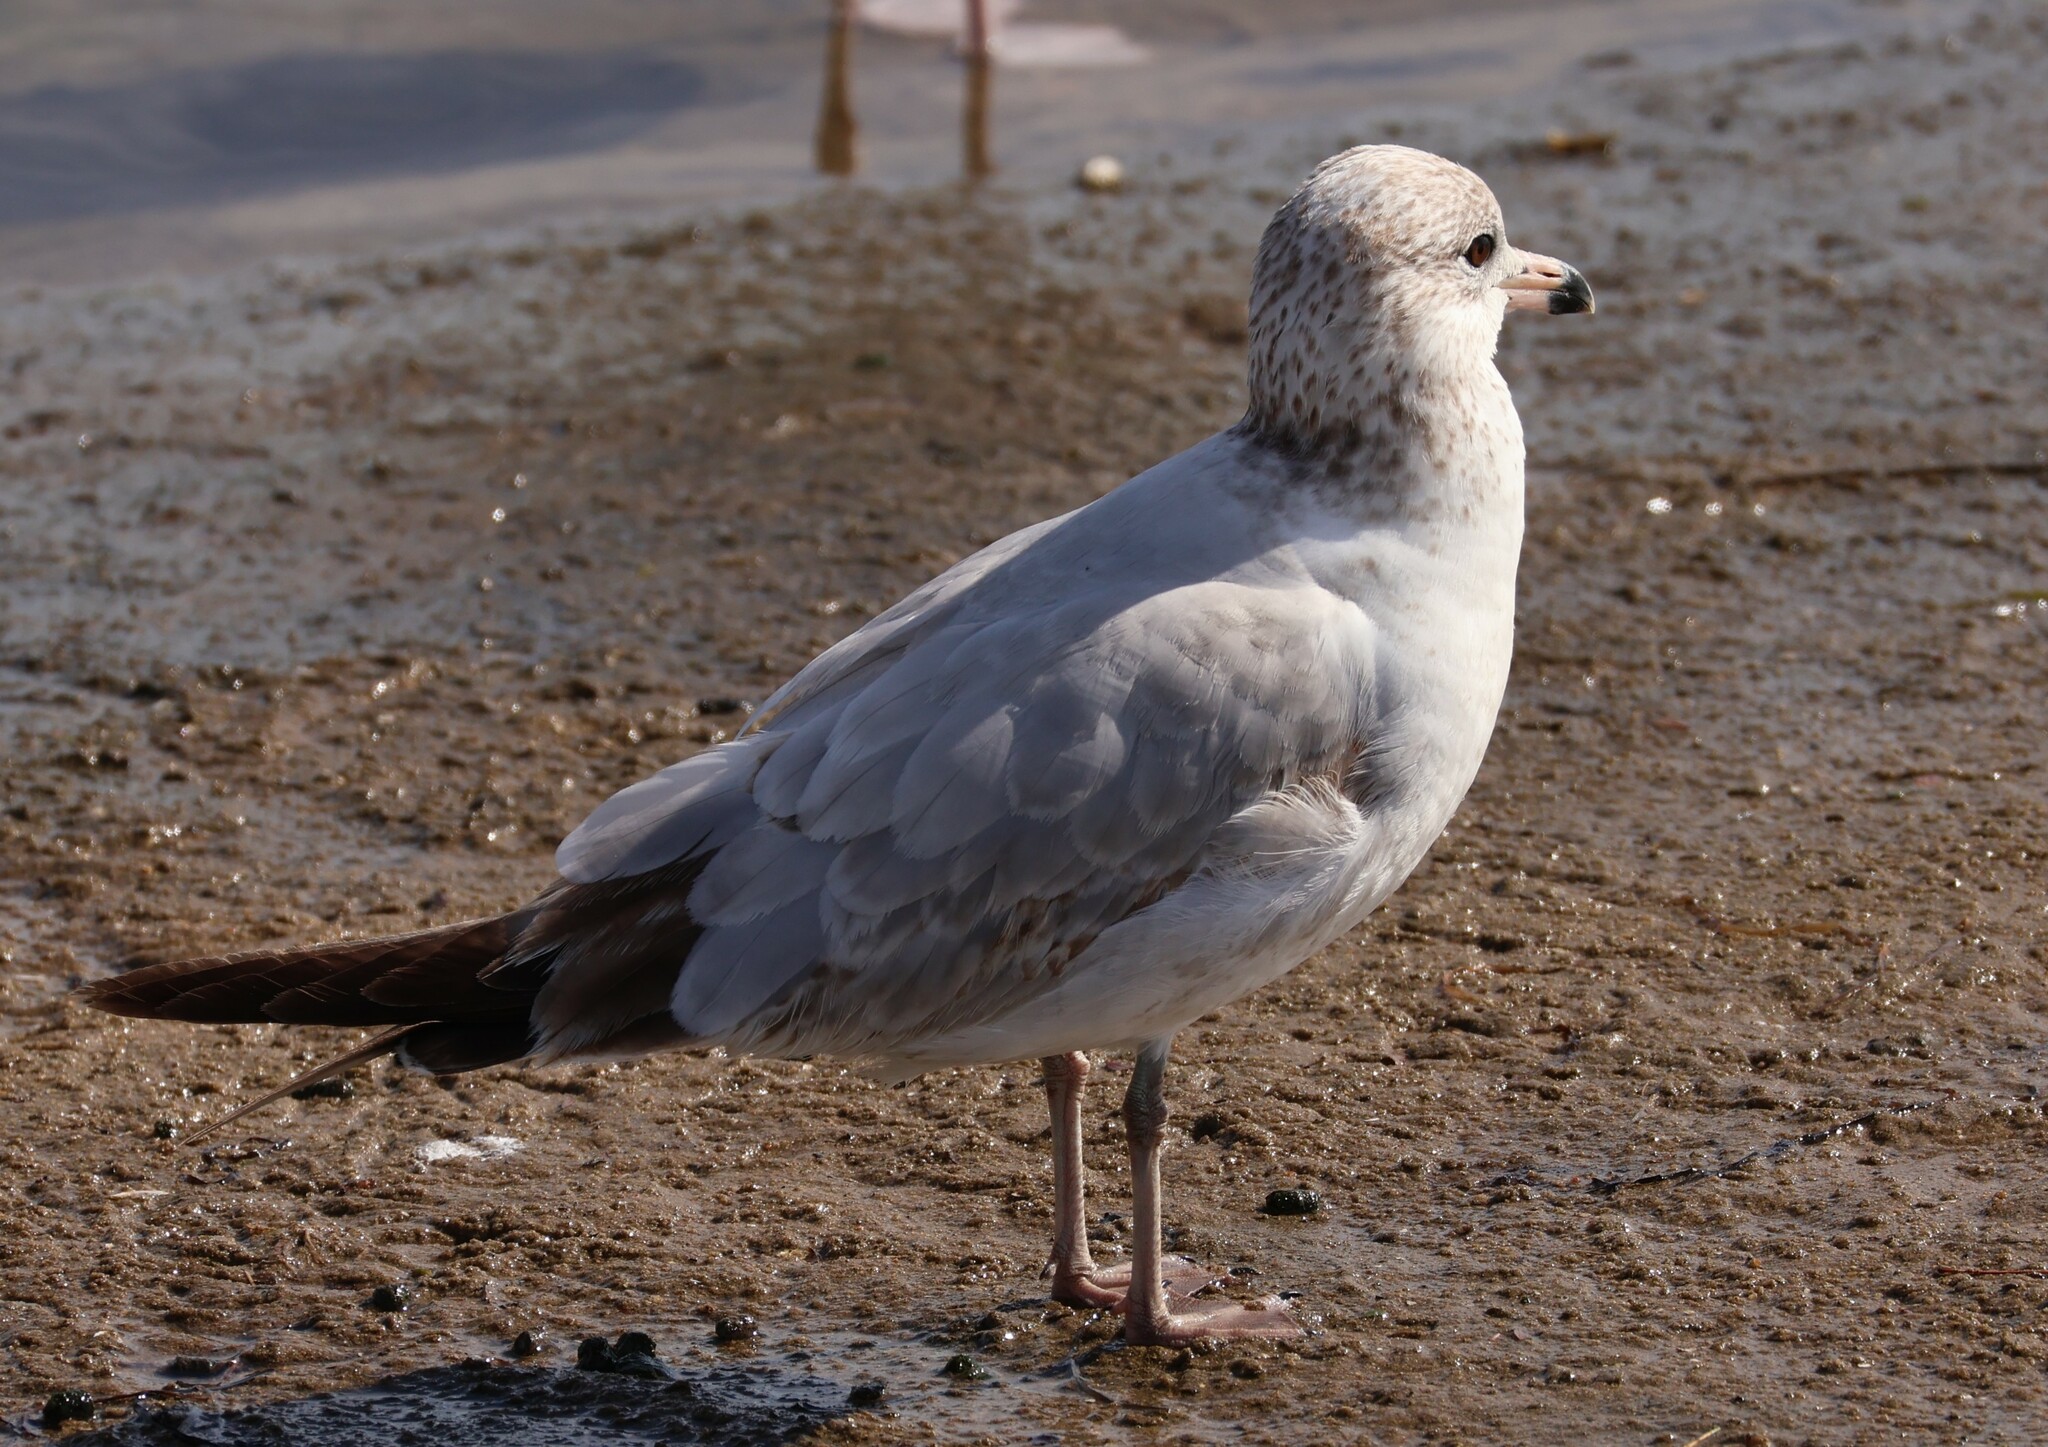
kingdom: Animalia
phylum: Chordata
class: Aves
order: Charadriiformes
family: Laridae
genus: Larus
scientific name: Larus delawarensis
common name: Ring-billed gull
